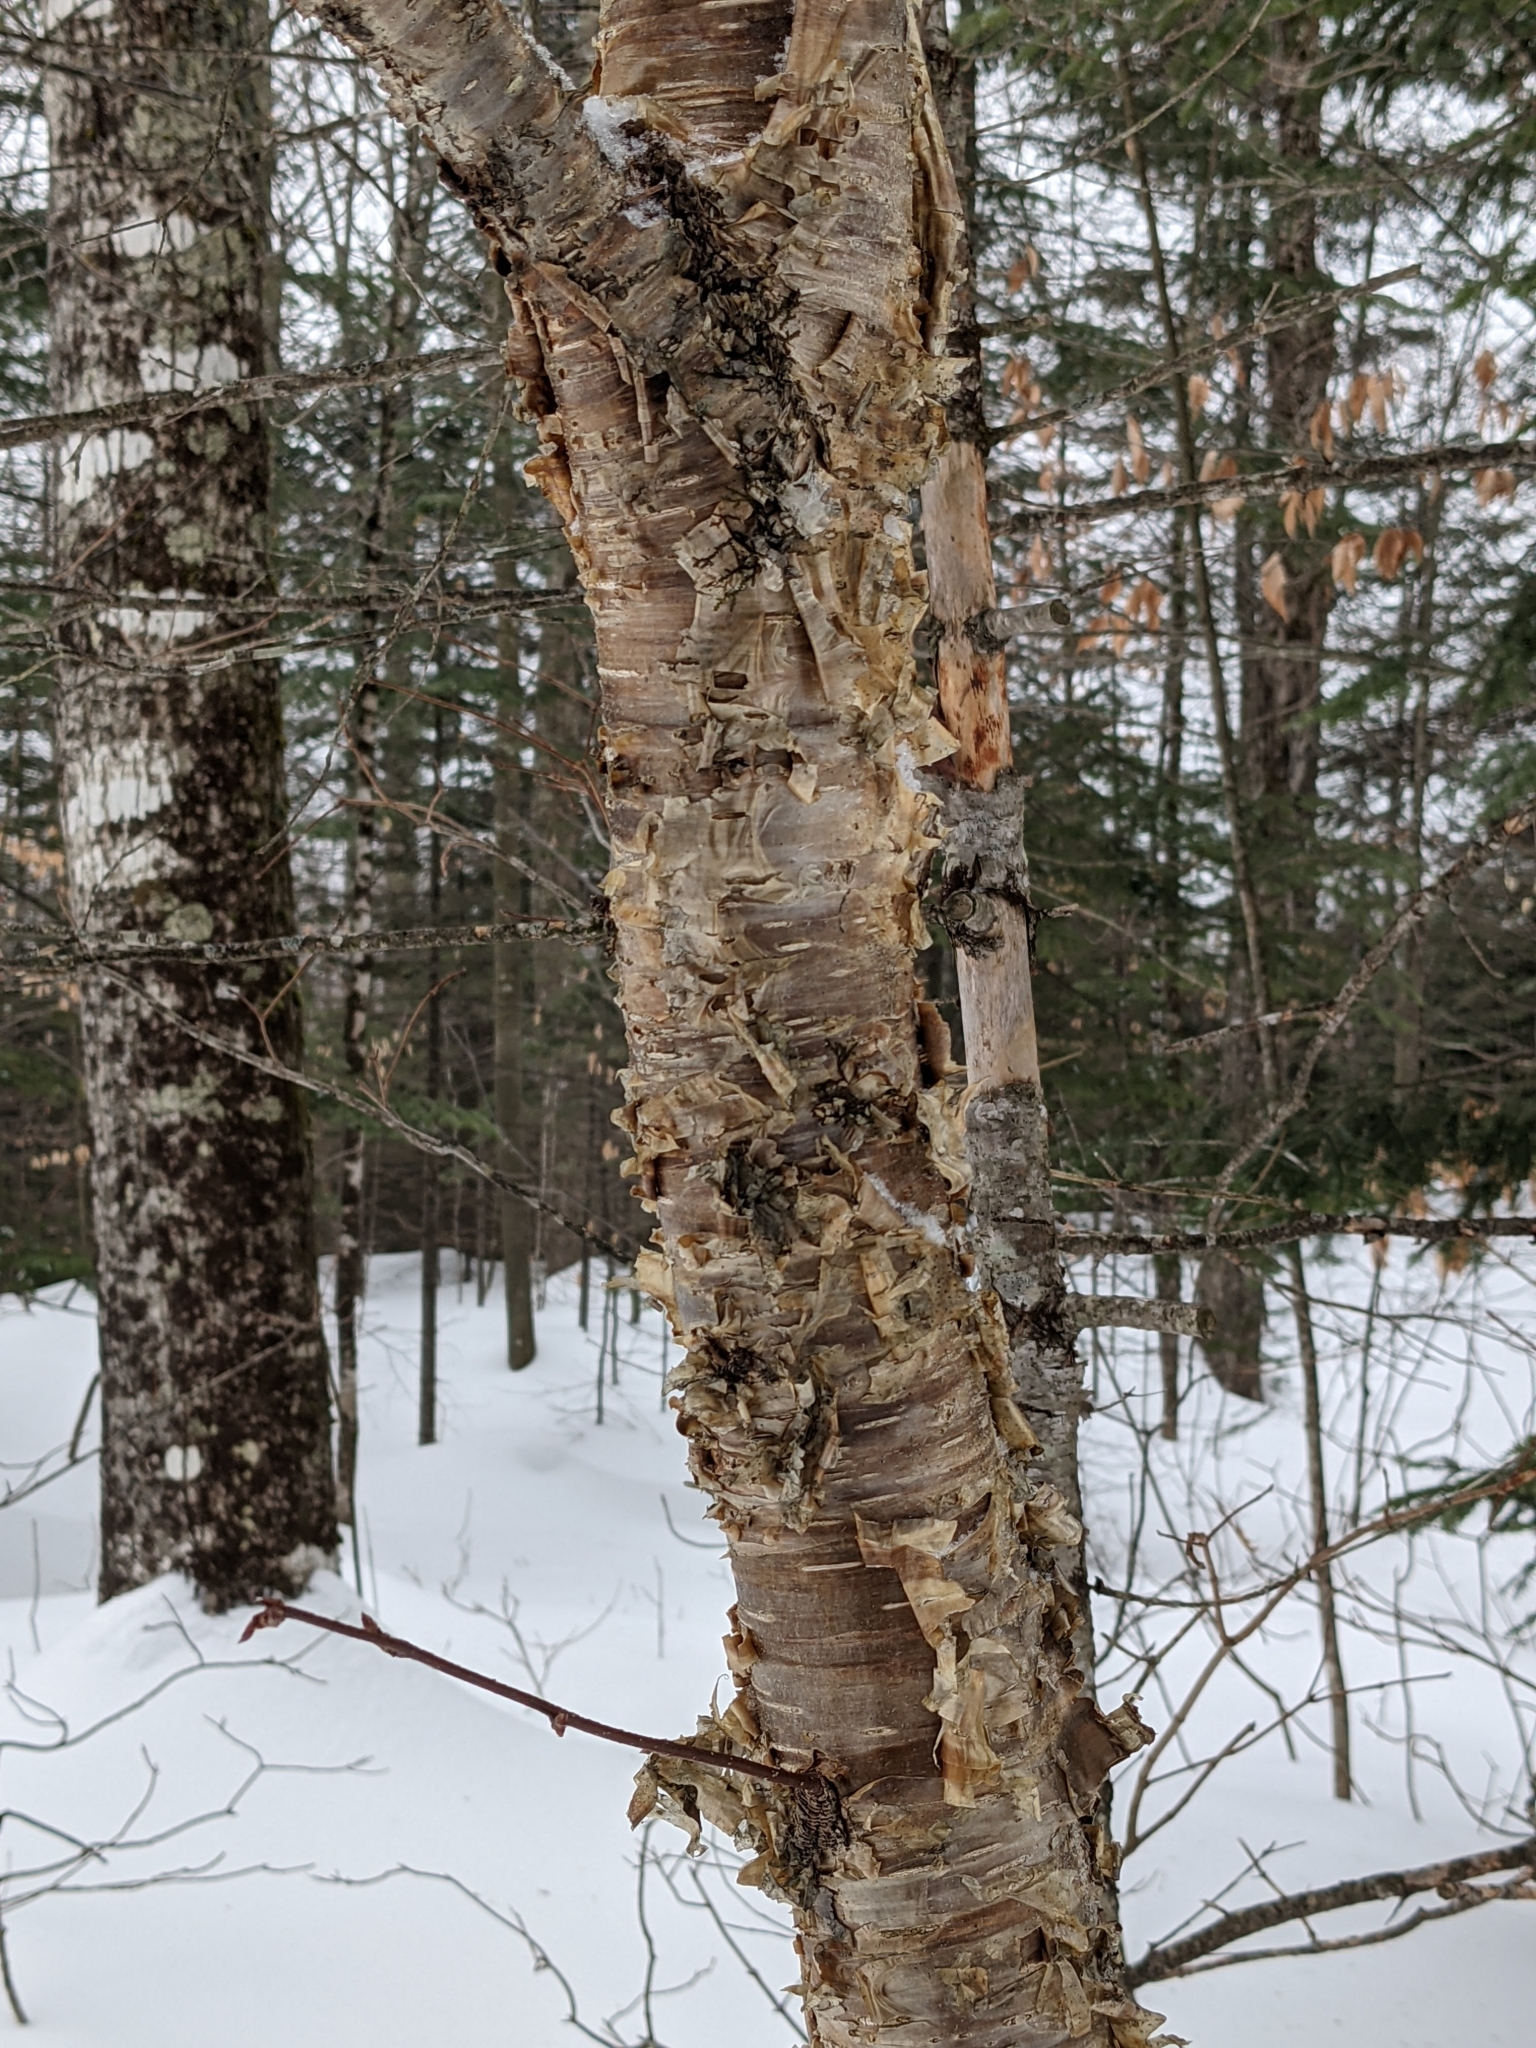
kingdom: Plantae
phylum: Tracheophyta
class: Magnoliopsida
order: Fagales
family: Betulaceae
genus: Betula
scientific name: Betula alleghaniensis
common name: Yellow birch
